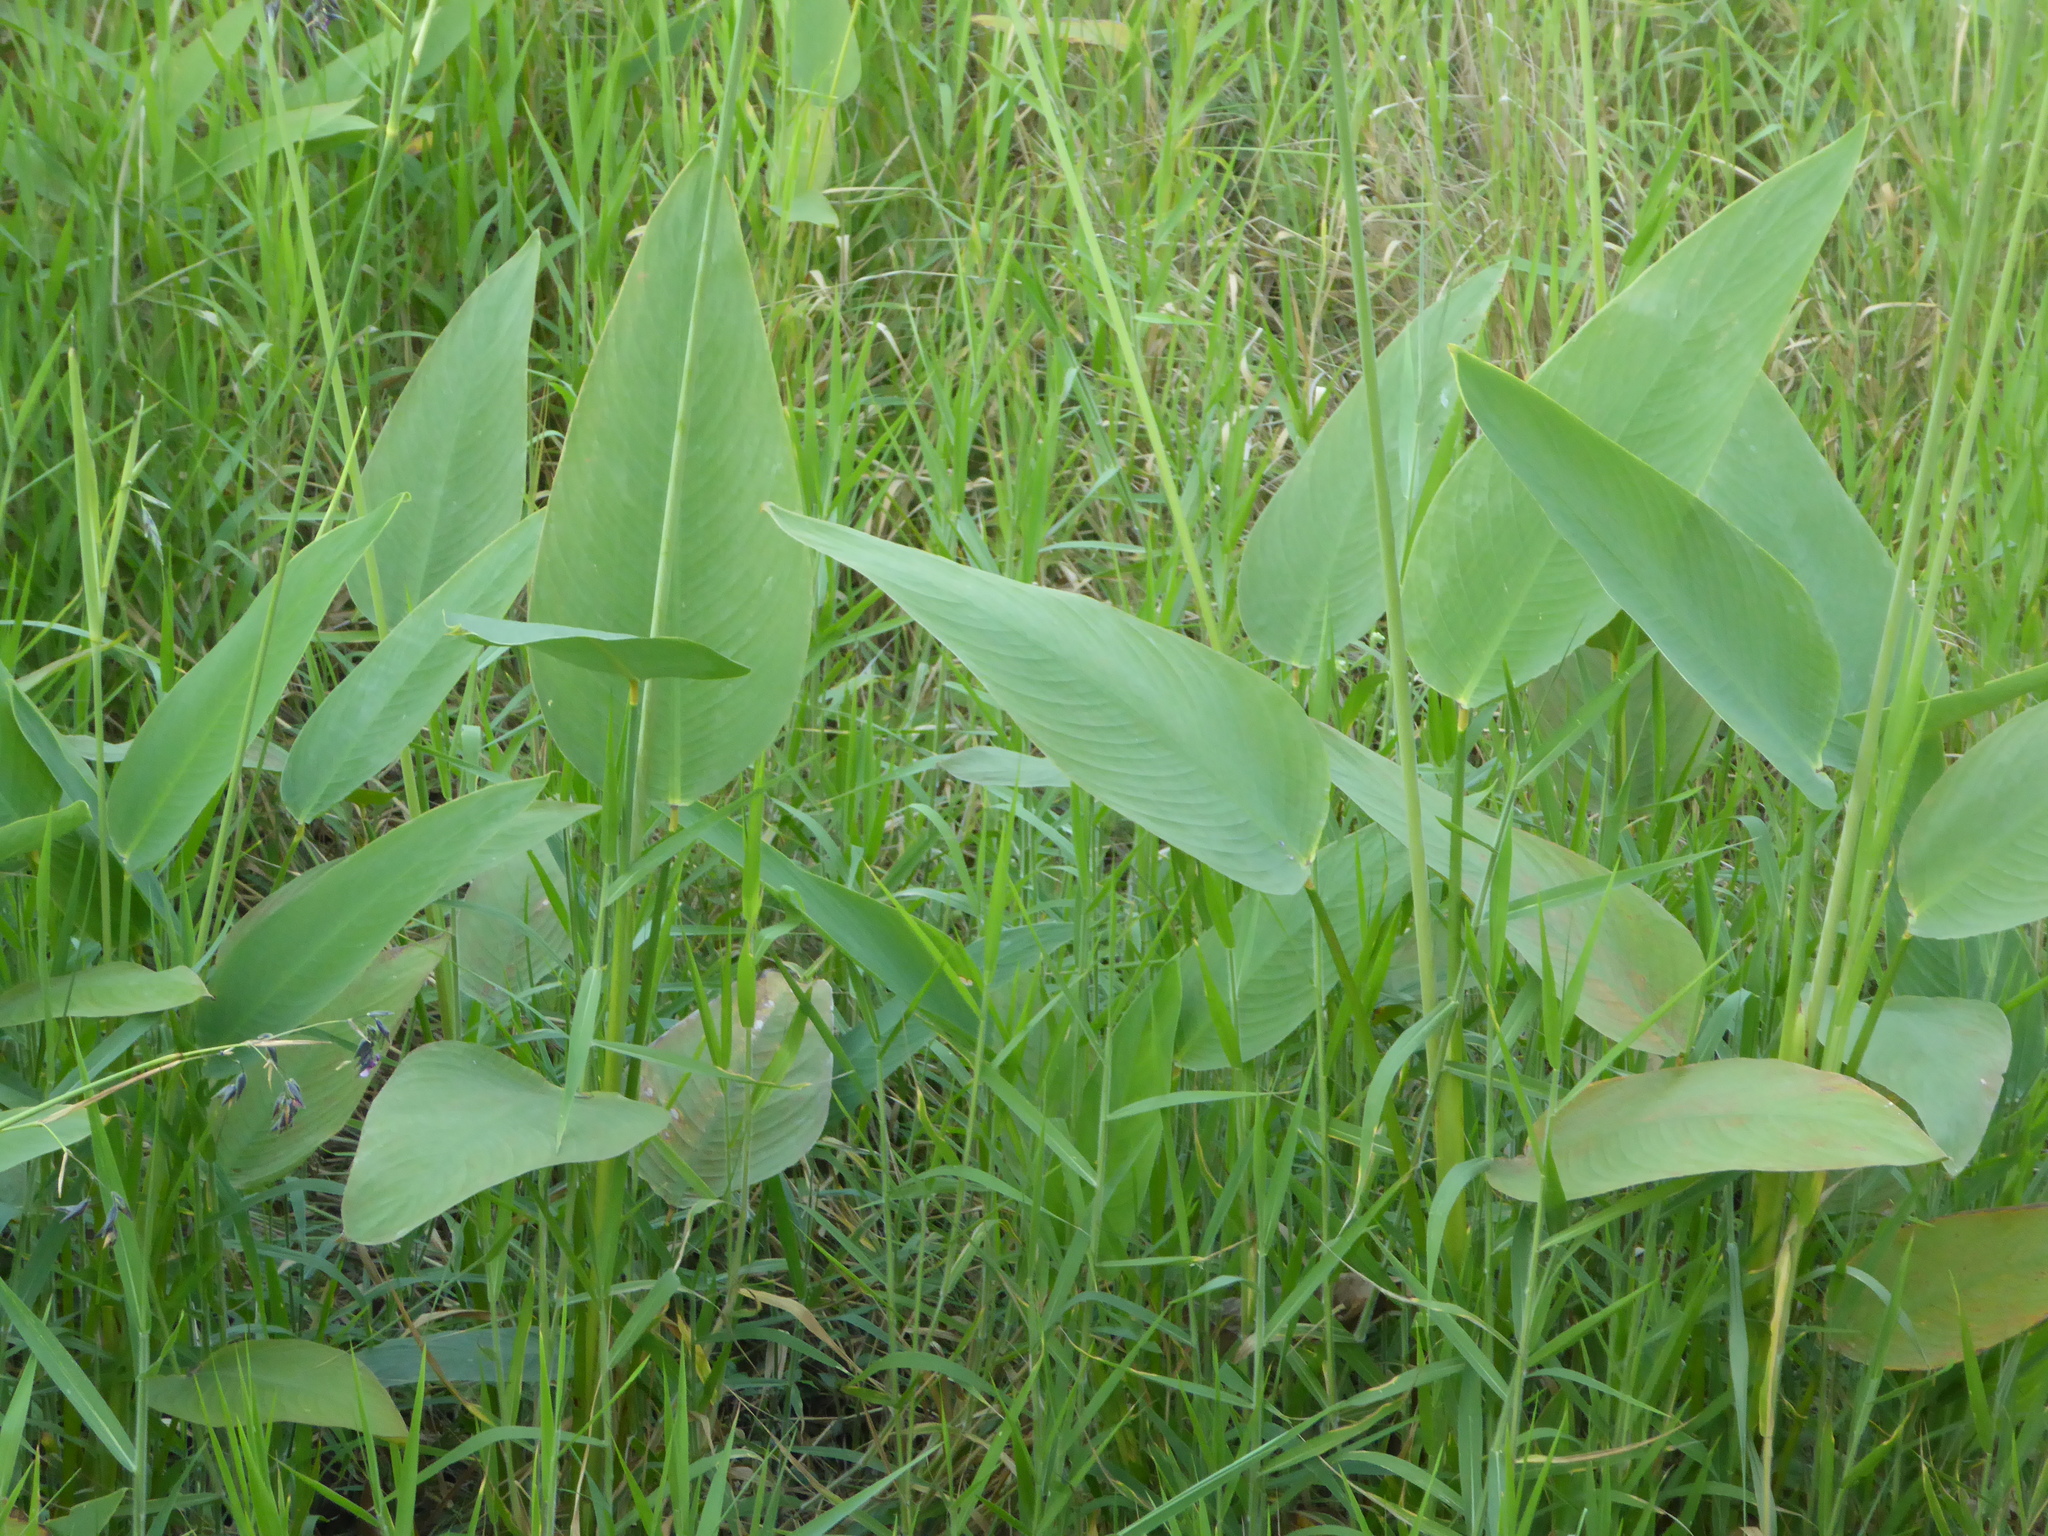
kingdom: Plantae
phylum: Tracheophyta
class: Liliopsida
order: Zingiberales
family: Marantaceae
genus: Thalia
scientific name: Thalia geniculata
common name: Arrowroot
